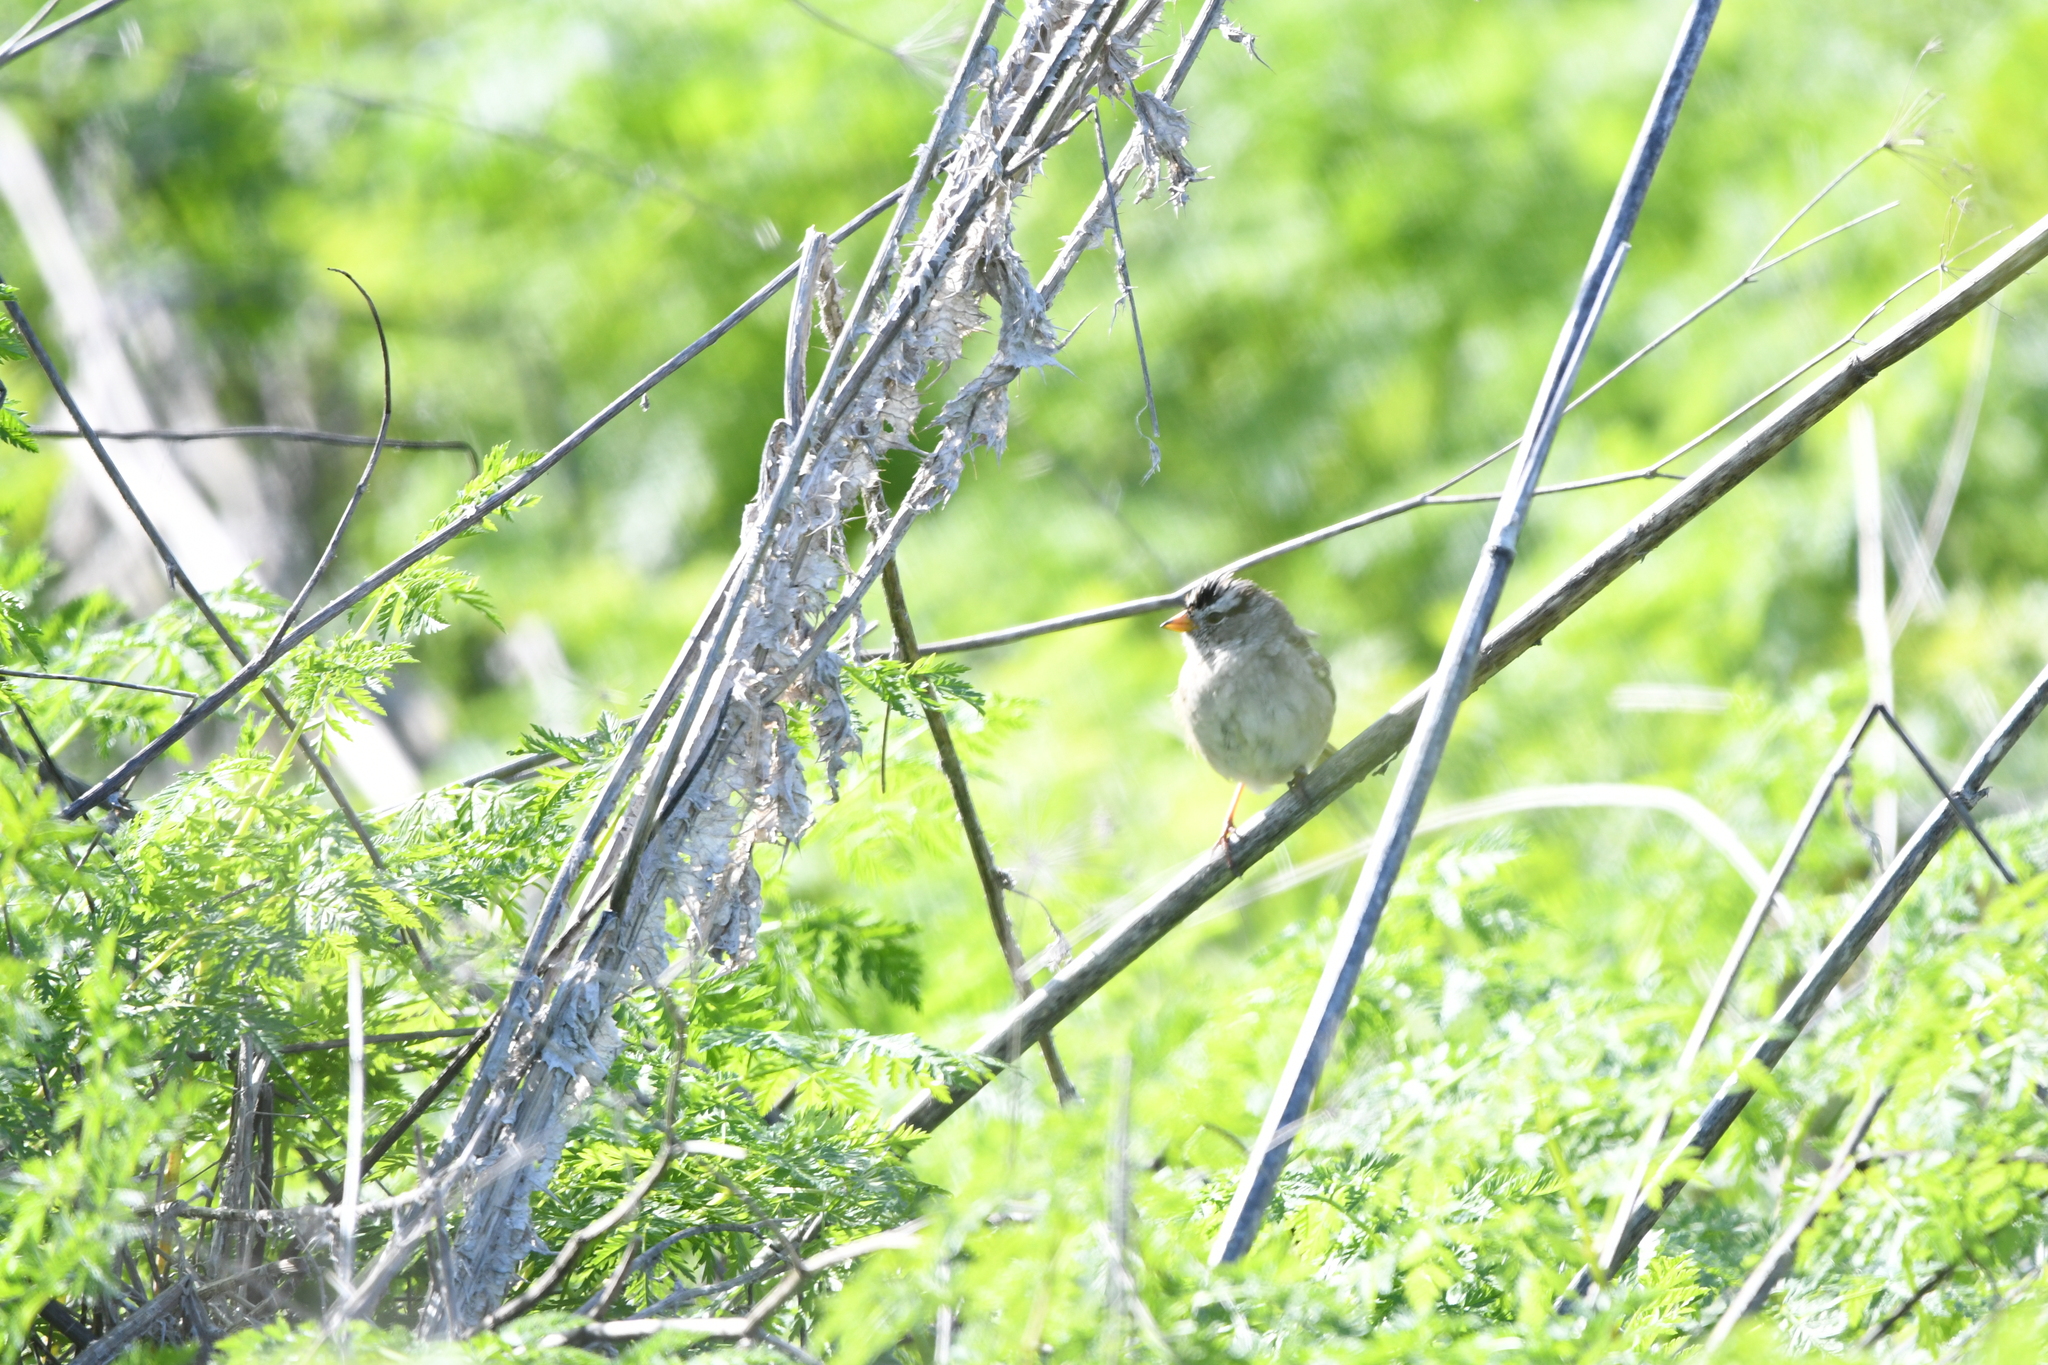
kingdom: Animalia
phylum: Chordata
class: Aves
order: Passeriformes
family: Passerellidae
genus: Zonotrichia
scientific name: Zonotrichia leucophrys
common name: White-crowned sparrow
